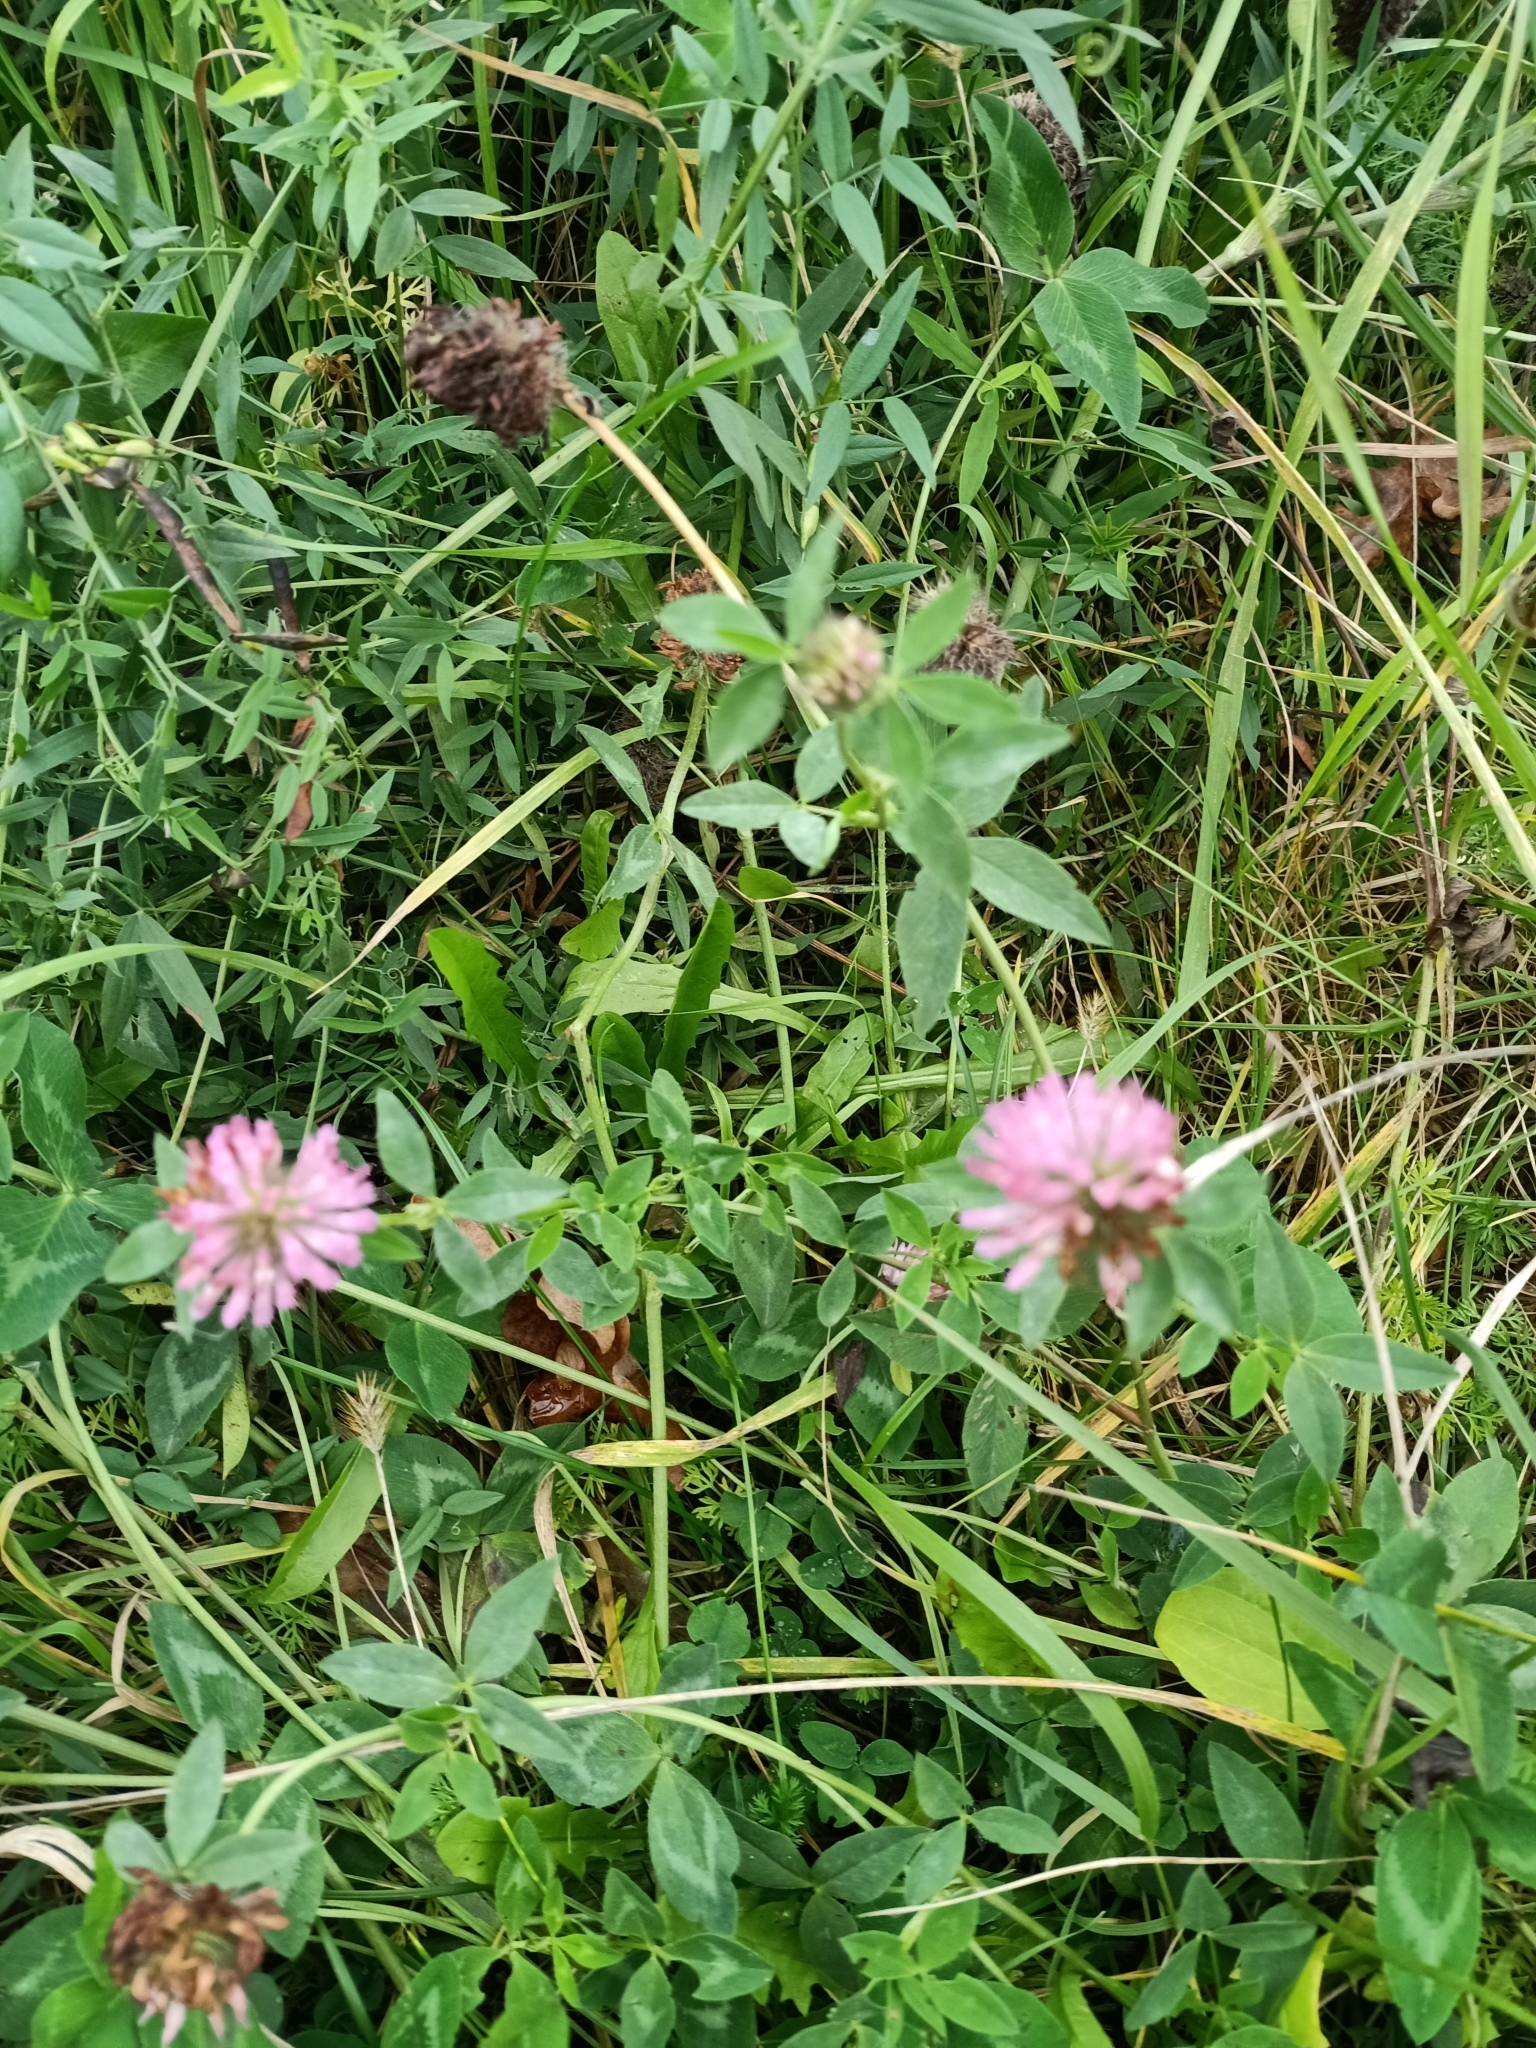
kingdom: Plantae
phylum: Tracheophyta
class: Magnoliopsida
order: Fabales
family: Fabaceae
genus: Trifolium
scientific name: Trifolium pratense
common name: Red clover
